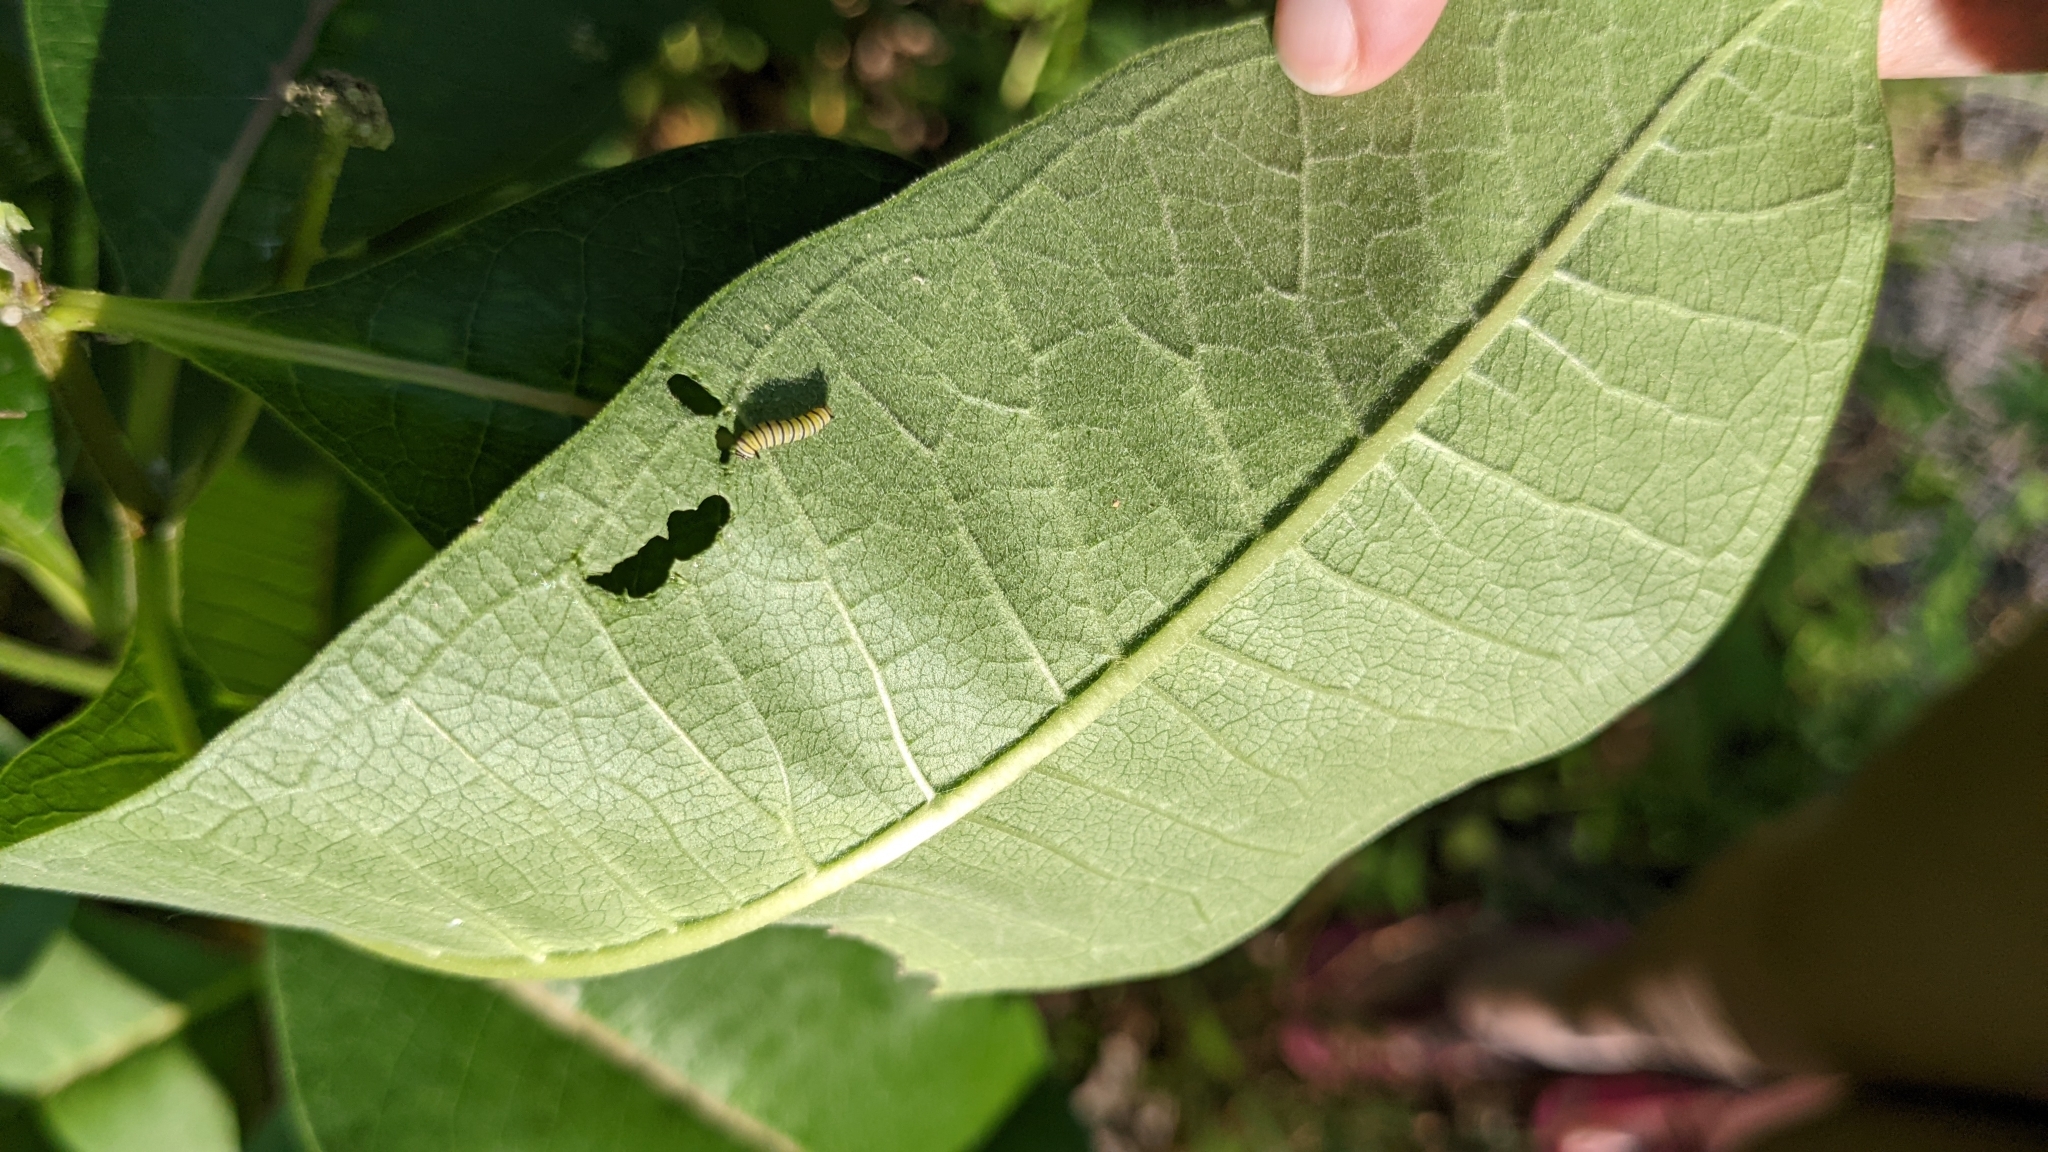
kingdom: Animalia
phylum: Arthropoda
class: Insecta
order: Lepidoptera
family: Nymphalidae
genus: Danaus
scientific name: Danaus plexippus
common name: Monarch
